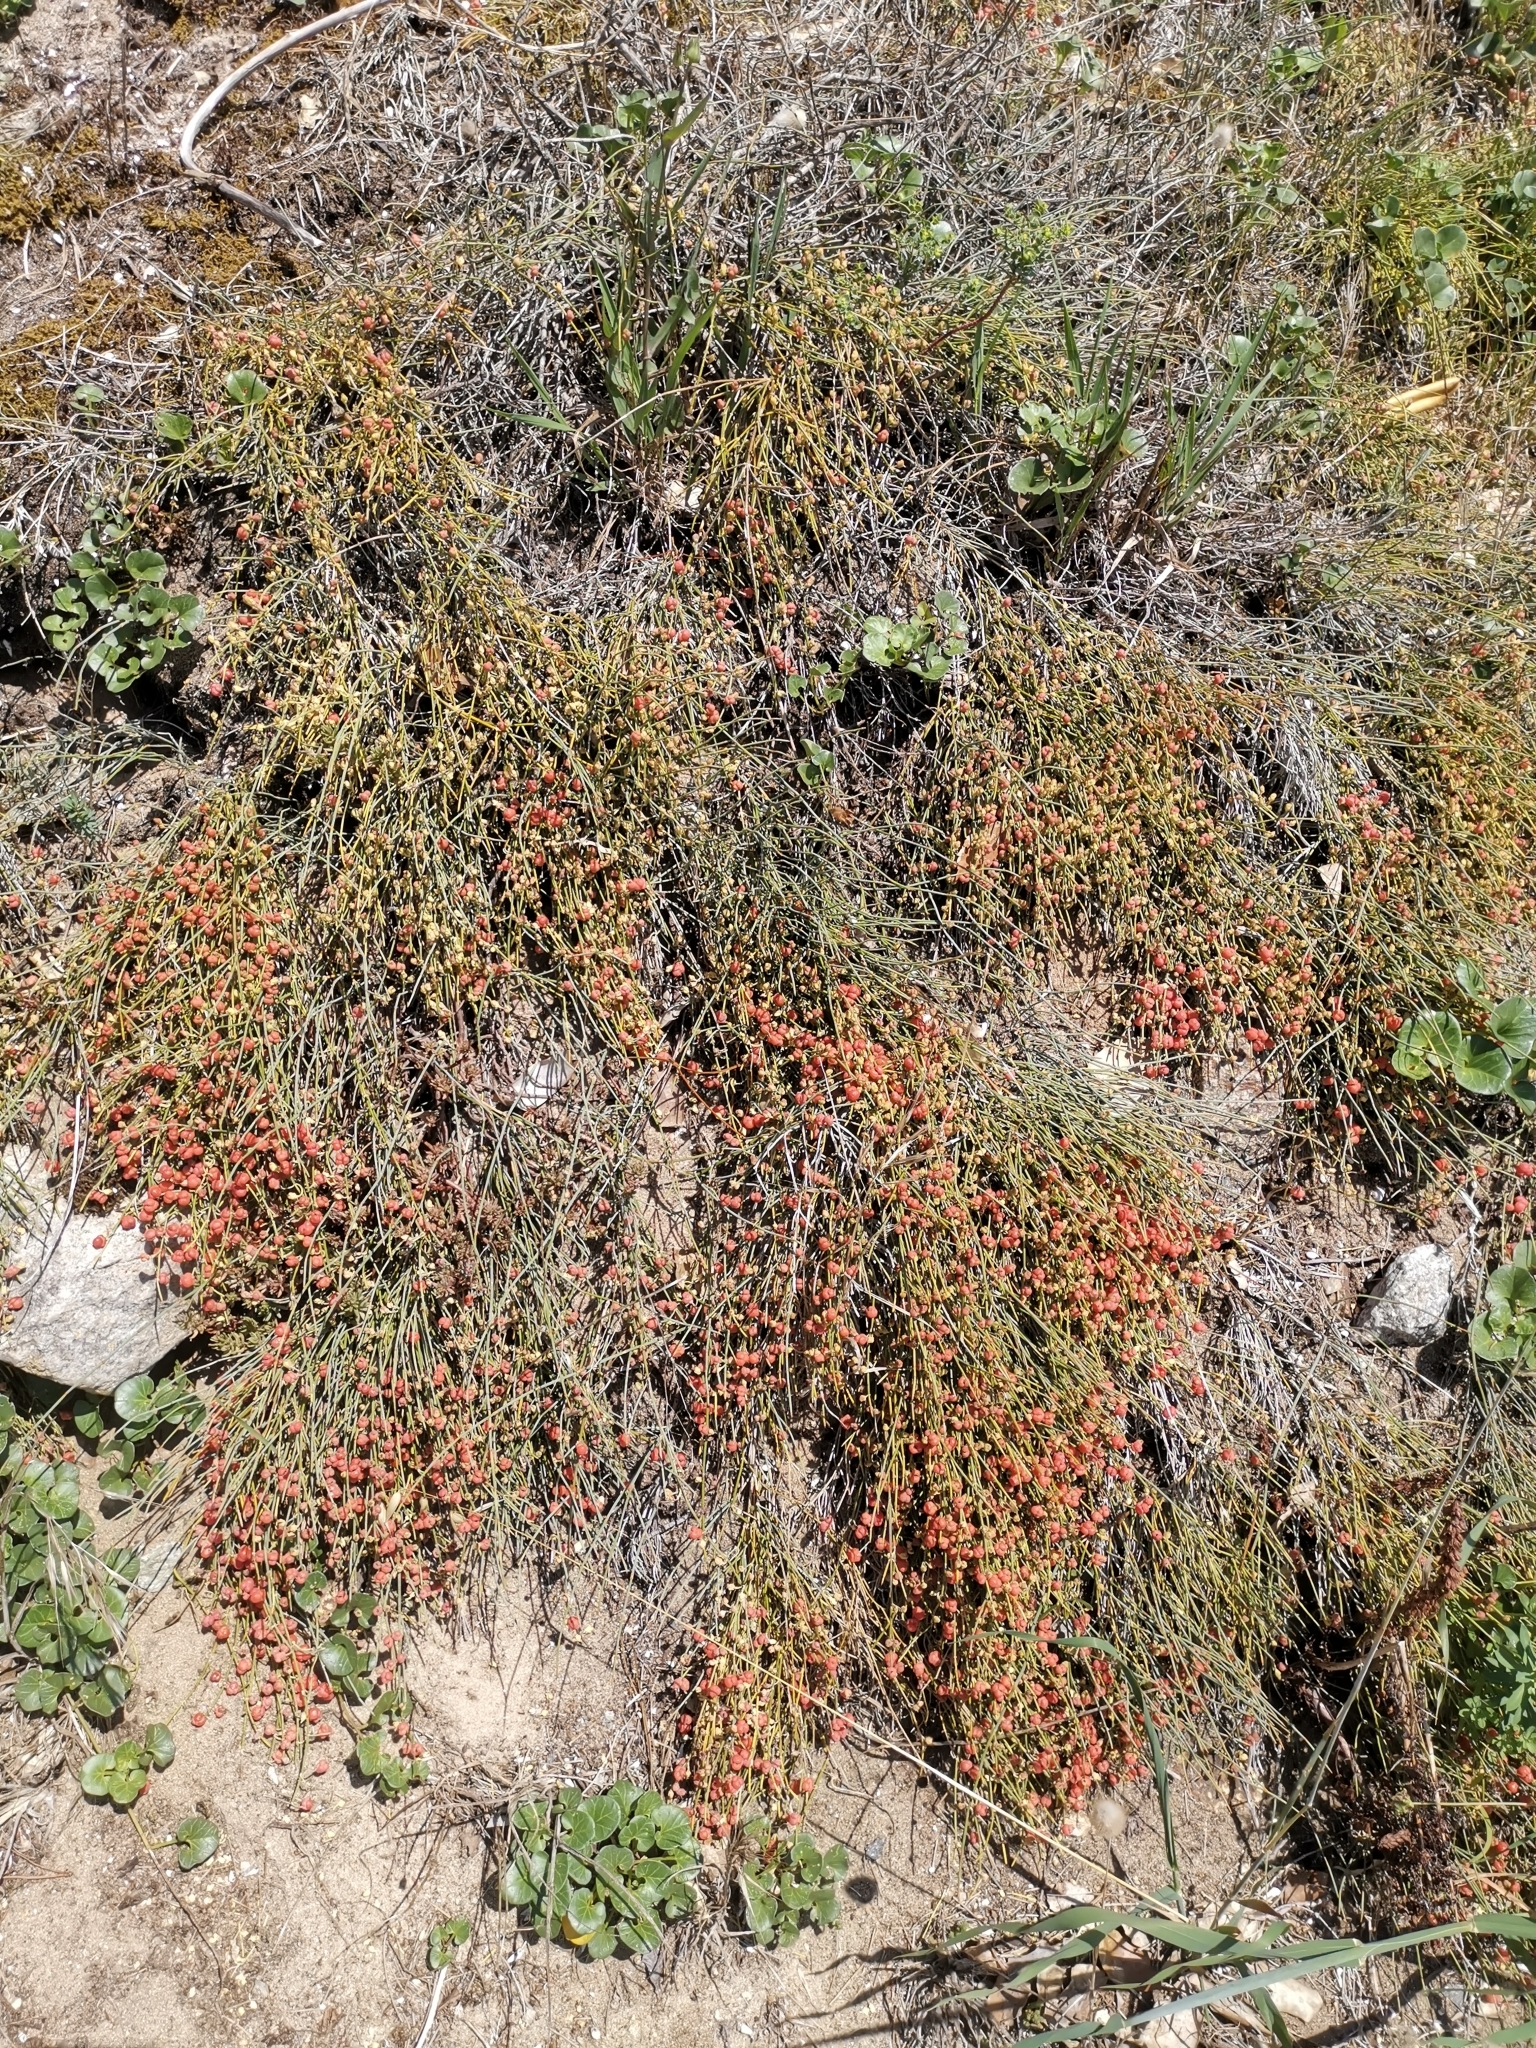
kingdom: Plantae
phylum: Tracheophyta
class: Gnetopsida
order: Ephedrales
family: Ephedraceae
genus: Ephedra
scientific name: Ephedra distachya
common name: Sea grape
